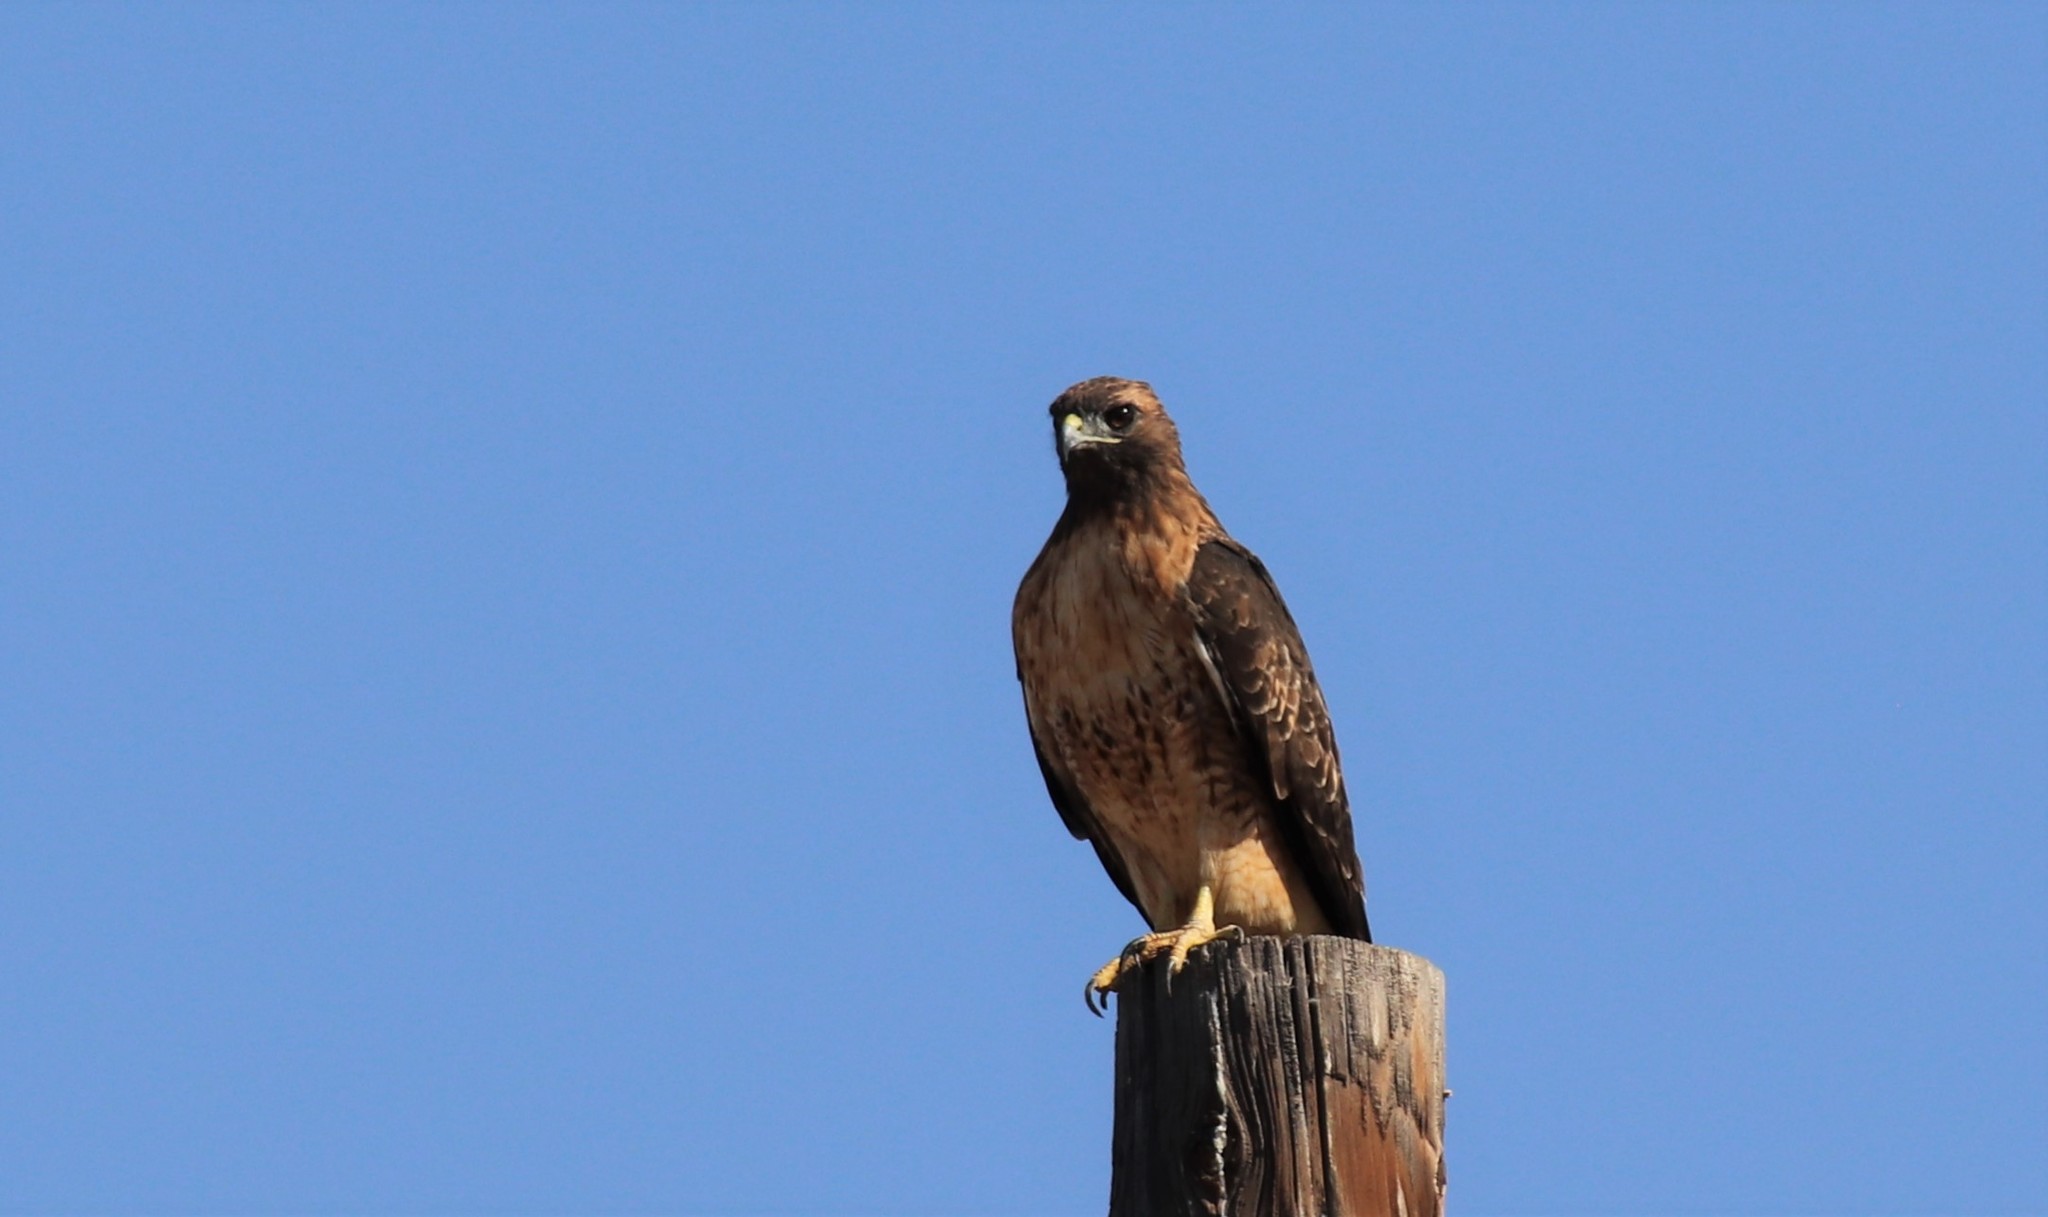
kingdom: Animalia
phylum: Chordata
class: Aves
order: Accipitriformes
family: Accipitridae
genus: Buteo
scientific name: Buteo jamaicensis
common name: Red-tailed hawk
